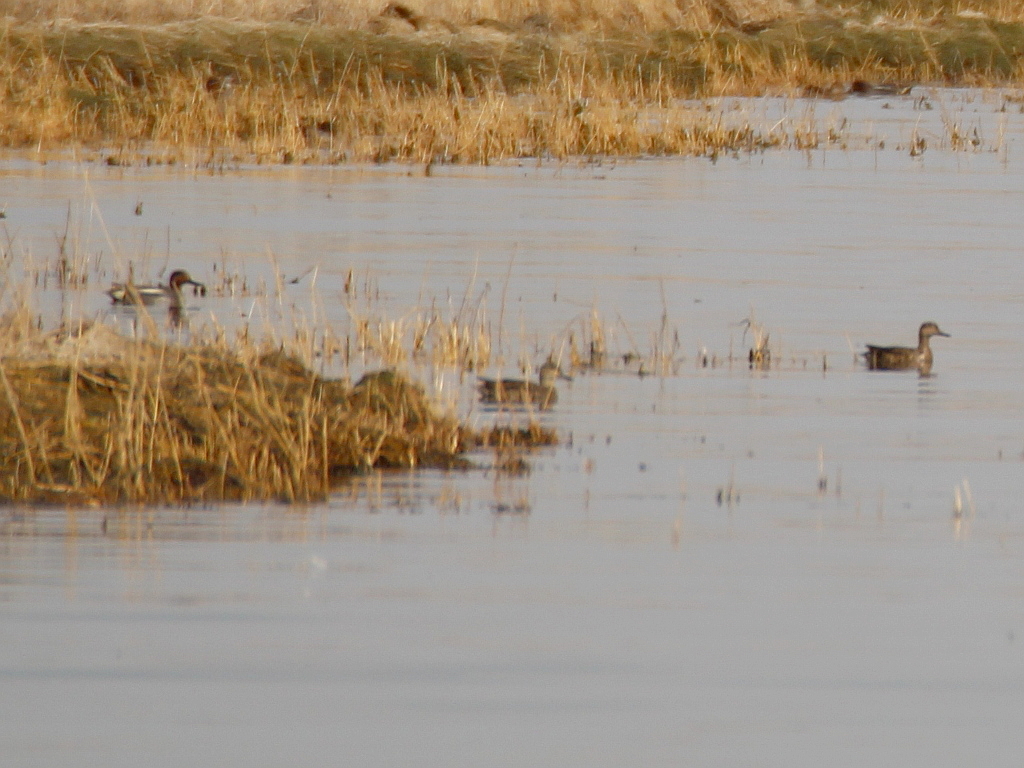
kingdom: Animalia
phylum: Chordata
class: Aves
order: Anseriformes
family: Anatidae
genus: Anas
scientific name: Anas crecca
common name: Eurasian teal
